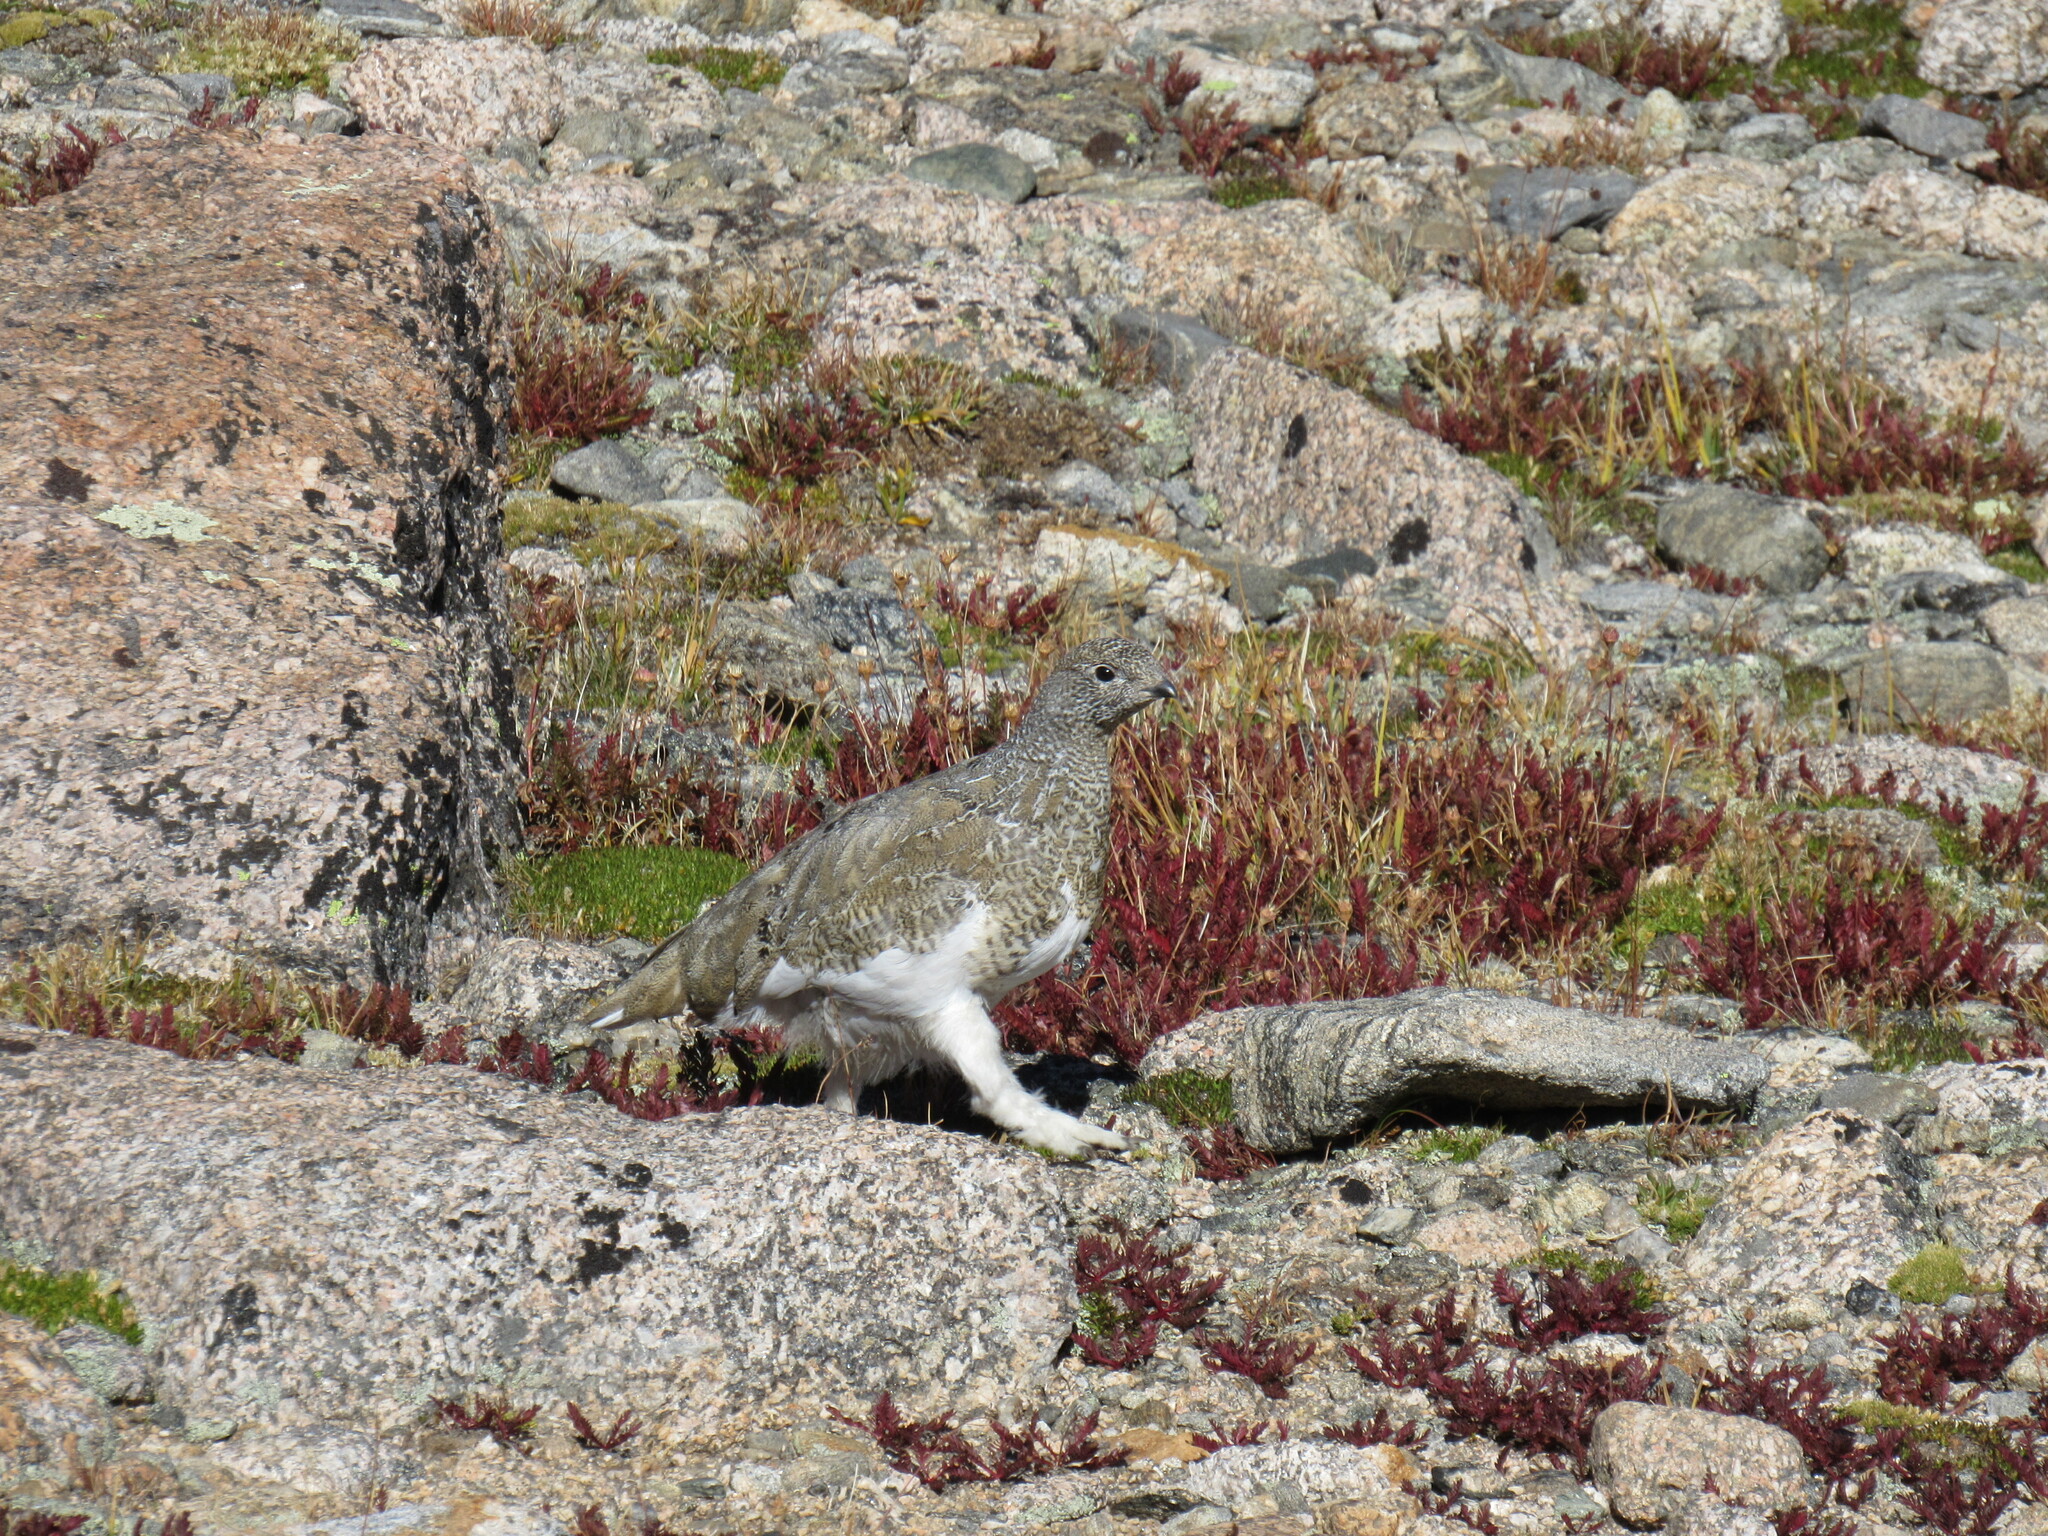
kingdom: Animalia
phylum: Chordata
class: Aves
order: Galliformes
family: Phasianidae
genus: Lagopus
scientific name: Lagopus leucura
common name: White-tailed ptarmigan
